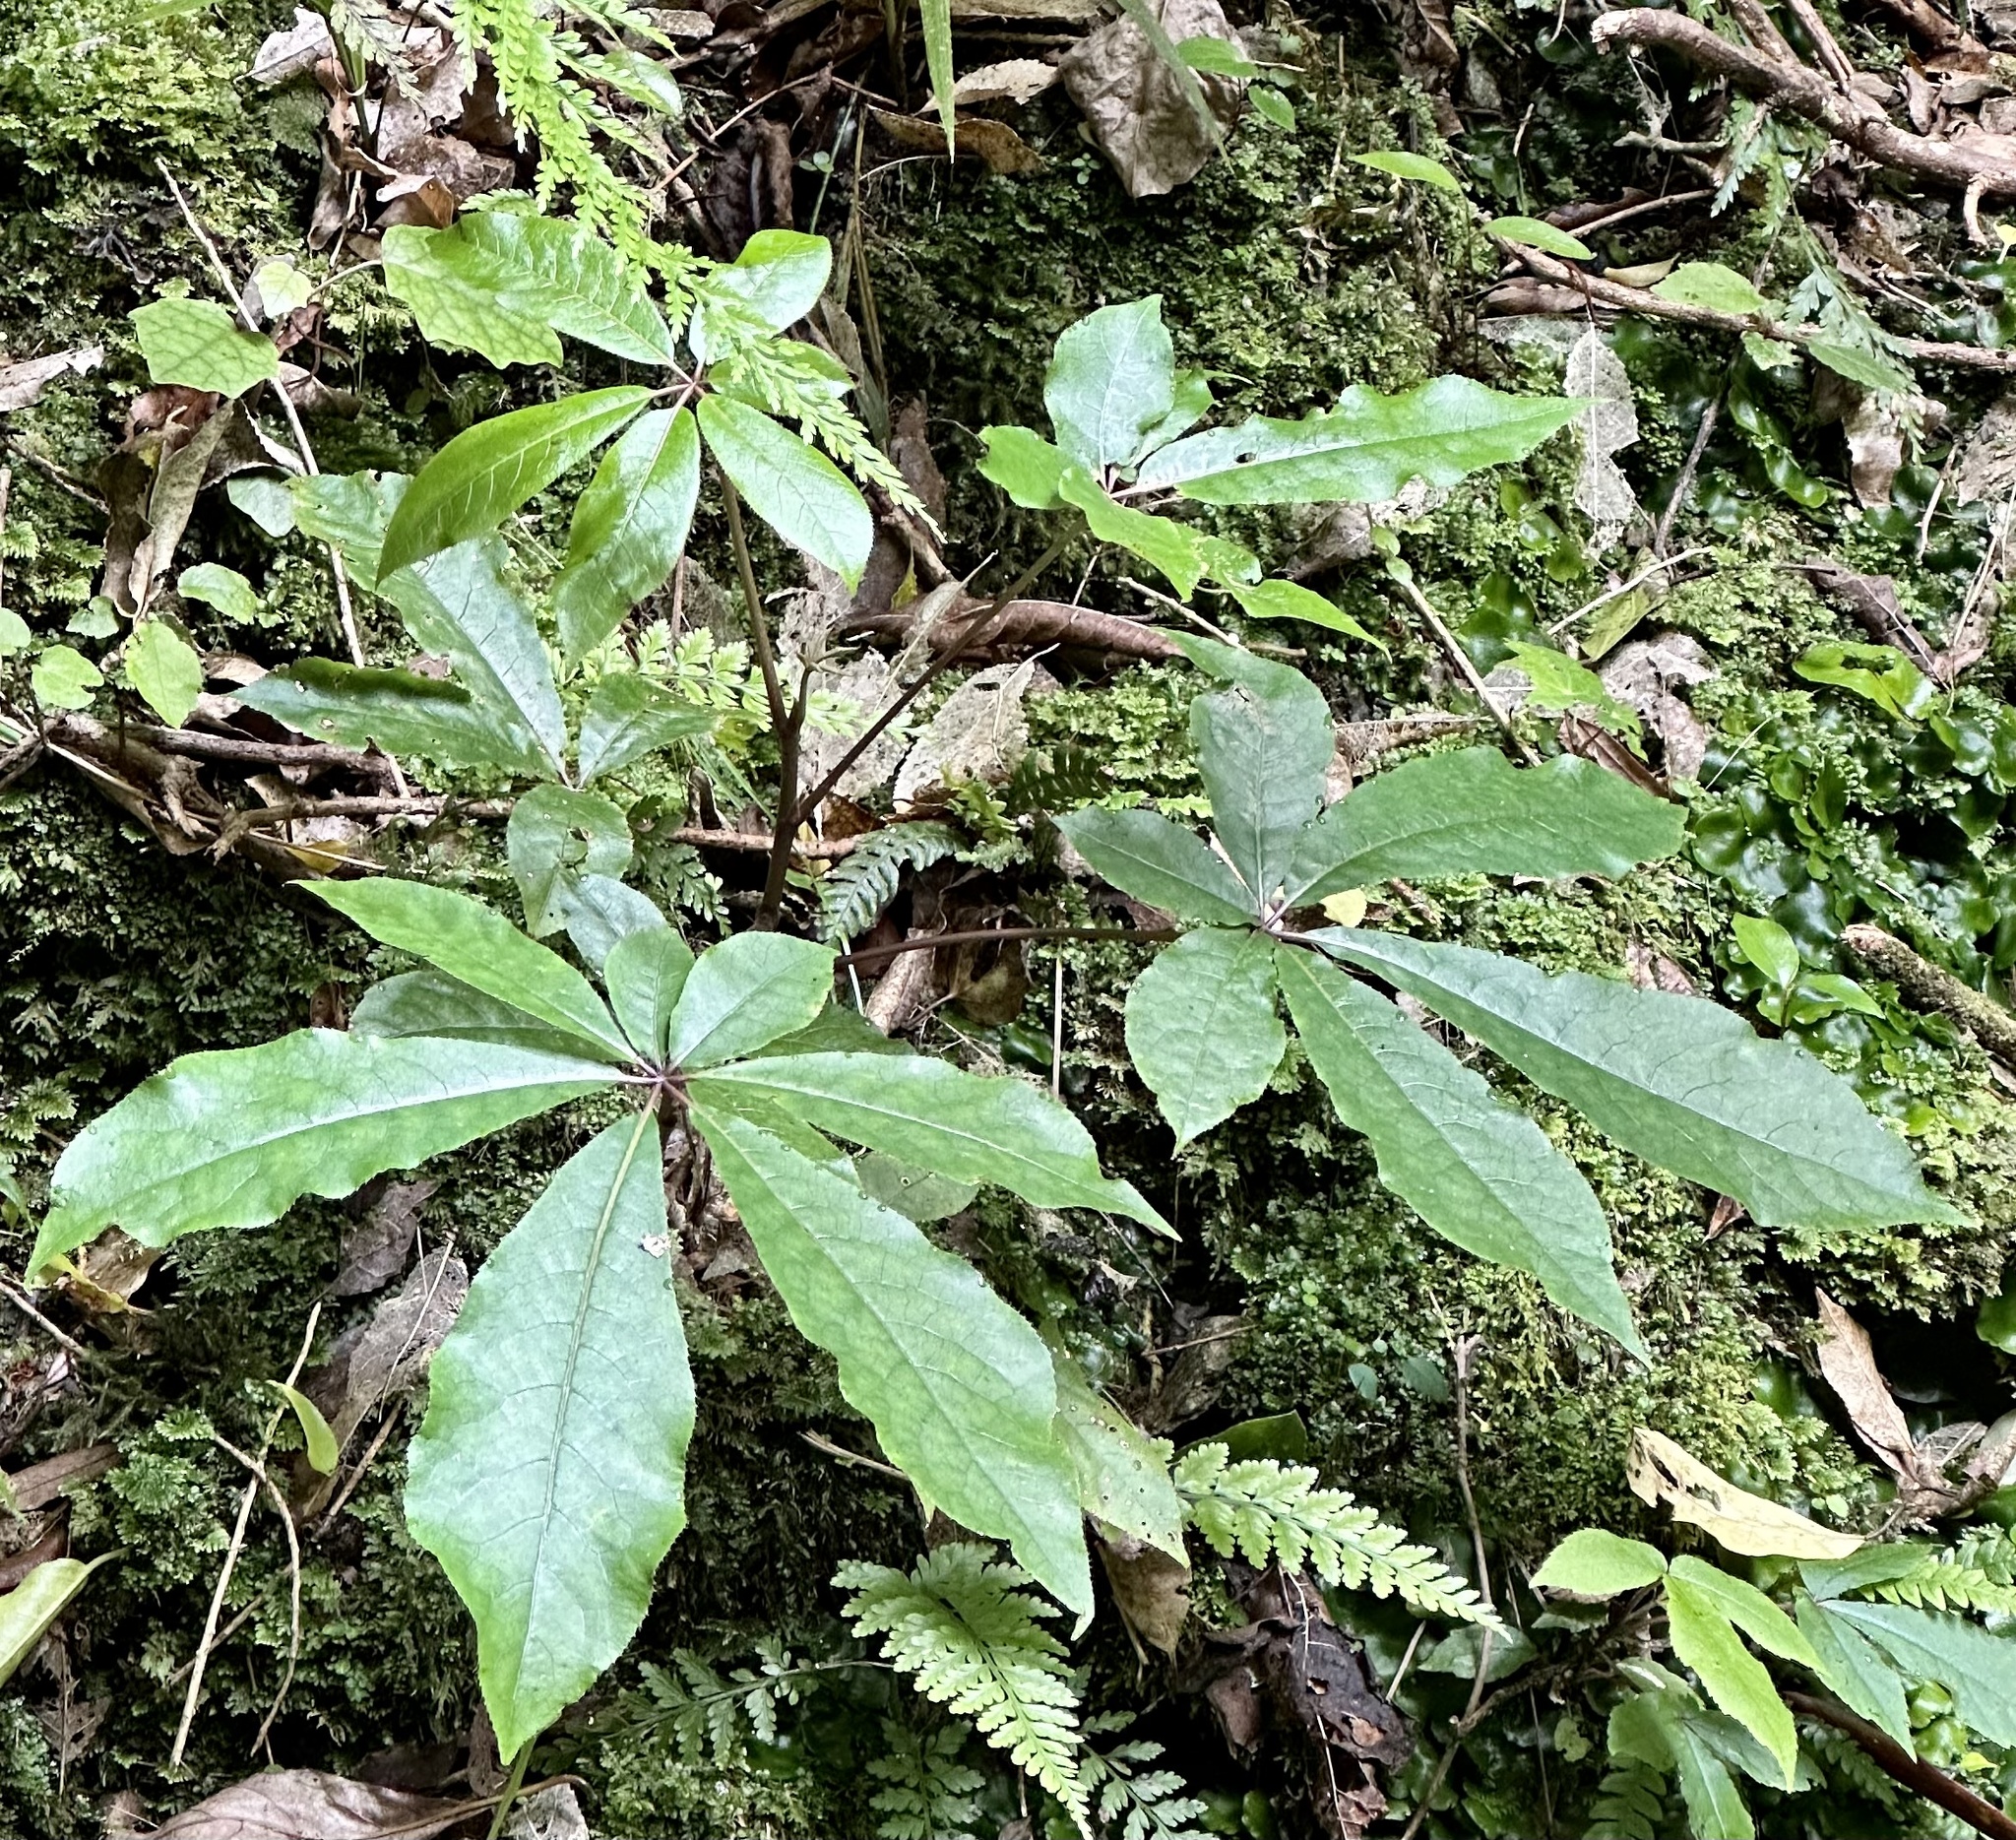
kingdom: Plantae
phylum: Tracheophyta
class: Magnoliopsida
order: Apiales
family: Araliaceae
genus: Schefflera
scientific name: Schefflera digitata
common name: Pate
